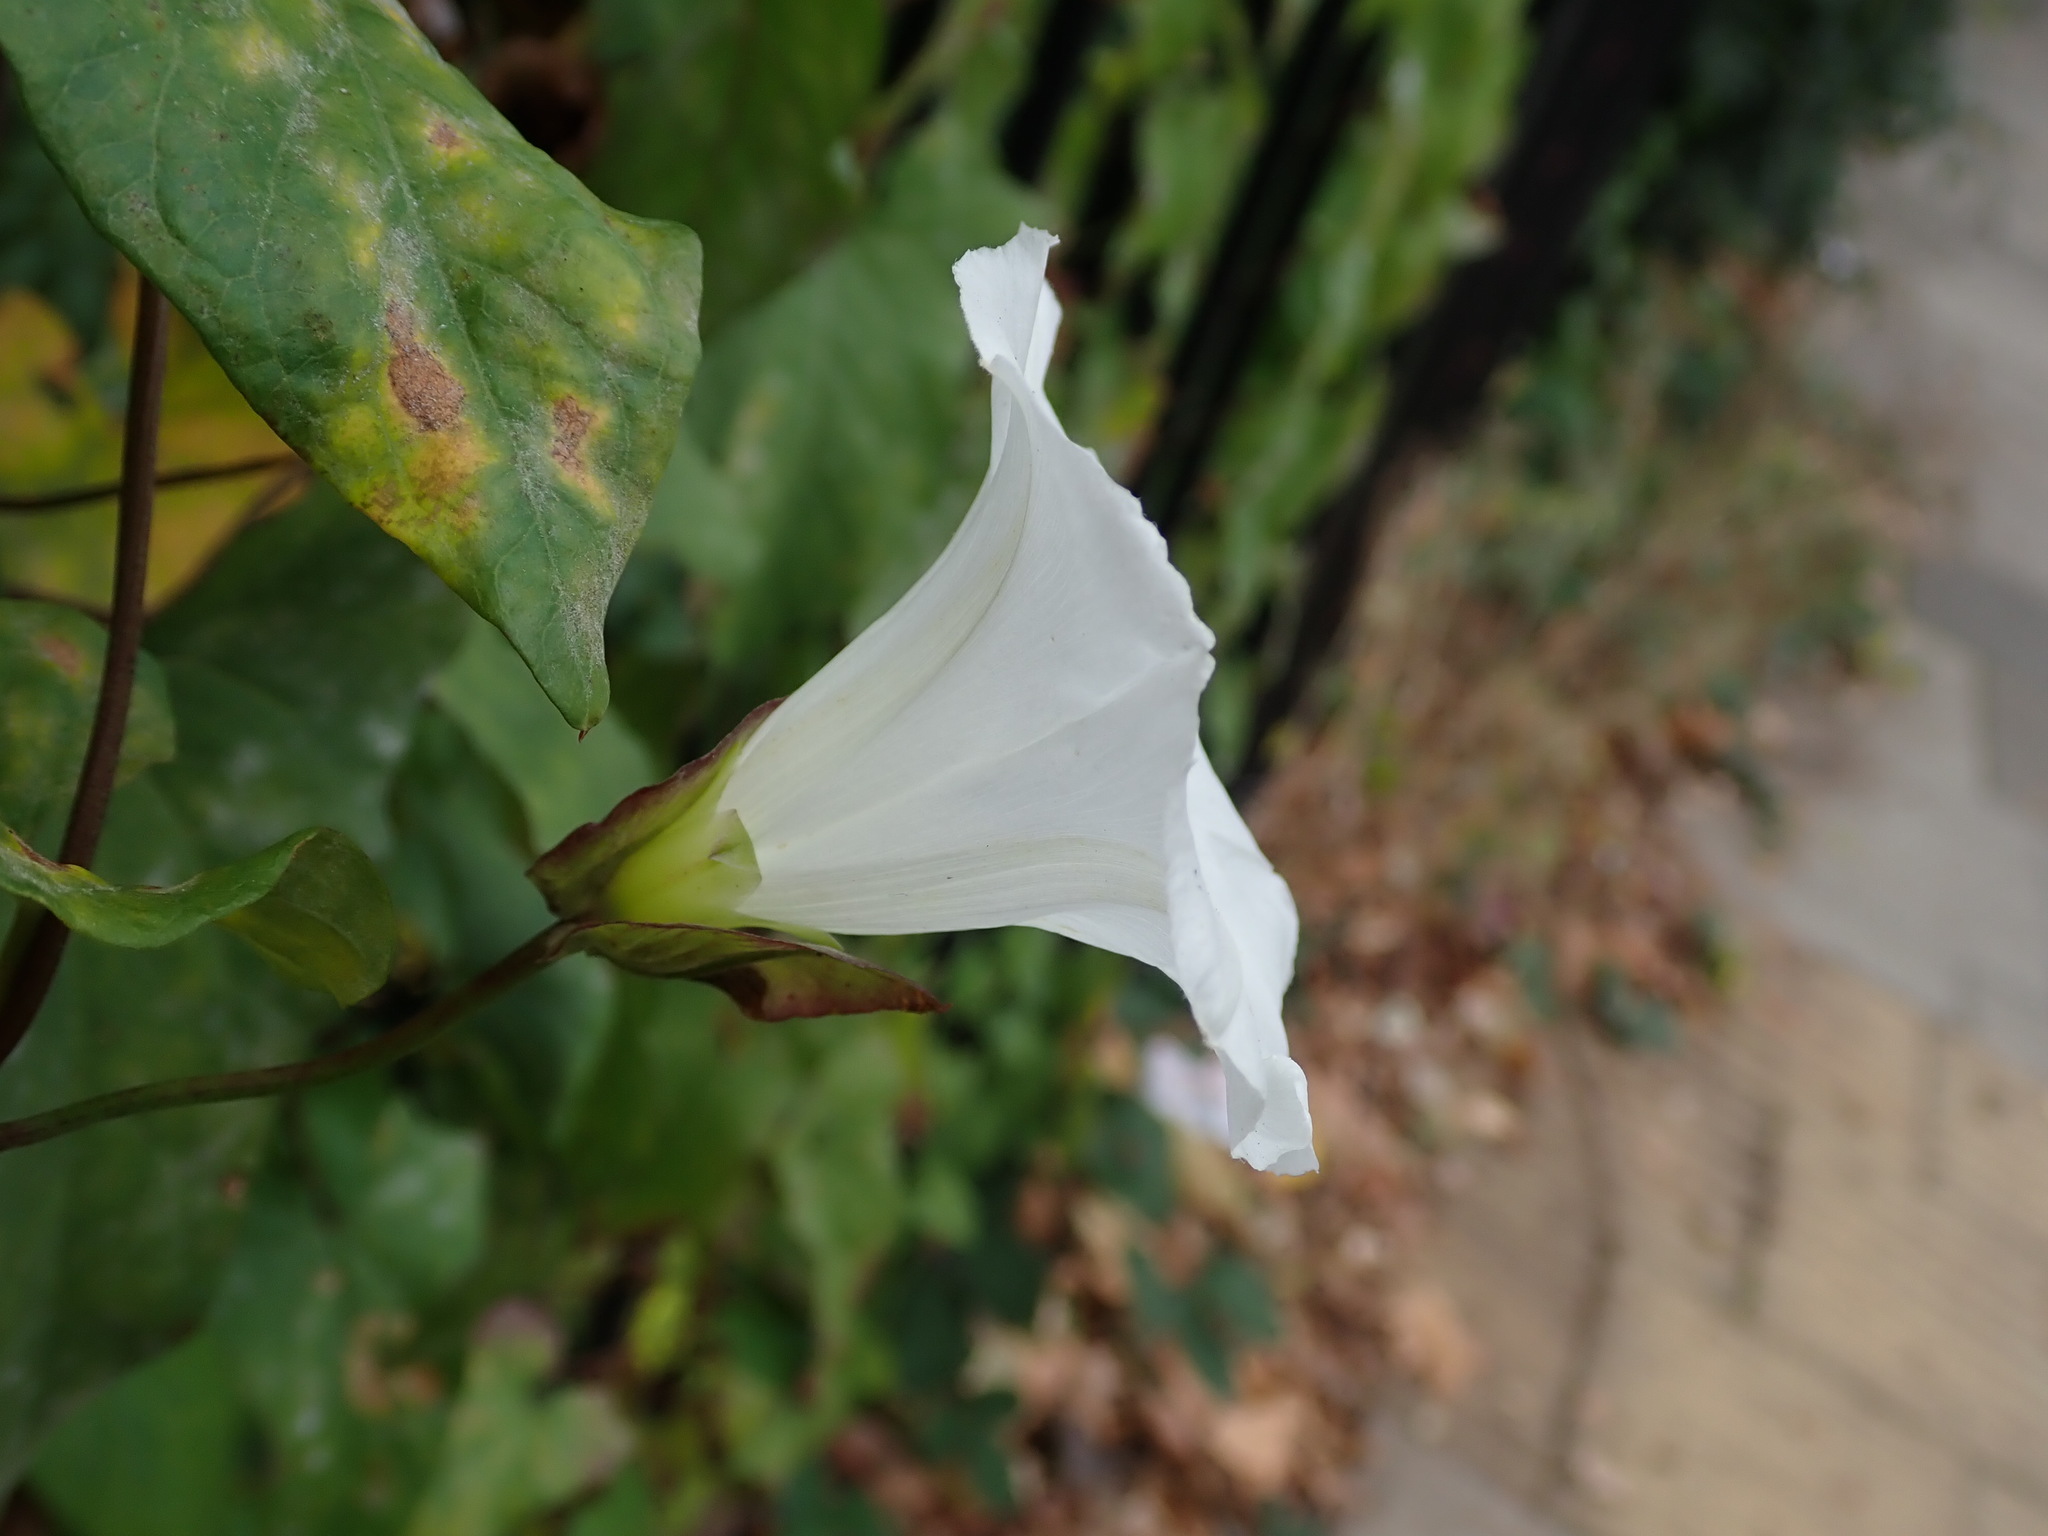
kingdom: Plantae
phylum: Tracheophyta
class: Magnoliopsida
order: Solanales
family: Convolvulaceae
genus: Calystegia
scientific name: Calystegia sepium
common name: Hedge bindweed
